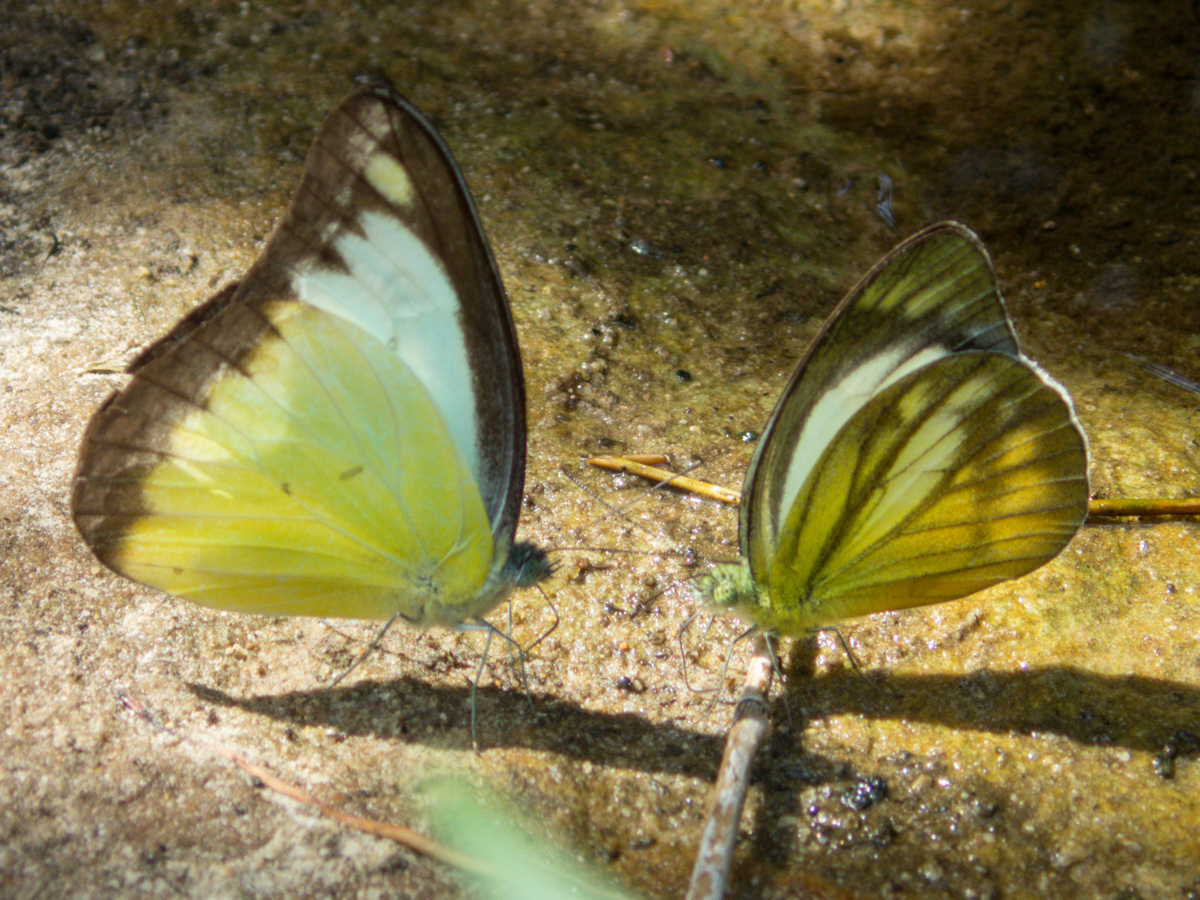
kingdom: Animalia
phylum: Arthropoda
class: Insecta
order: Lepidoptera
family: Pieridae
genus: Cepora
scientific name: Cepora nadina
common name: Lesser gull
